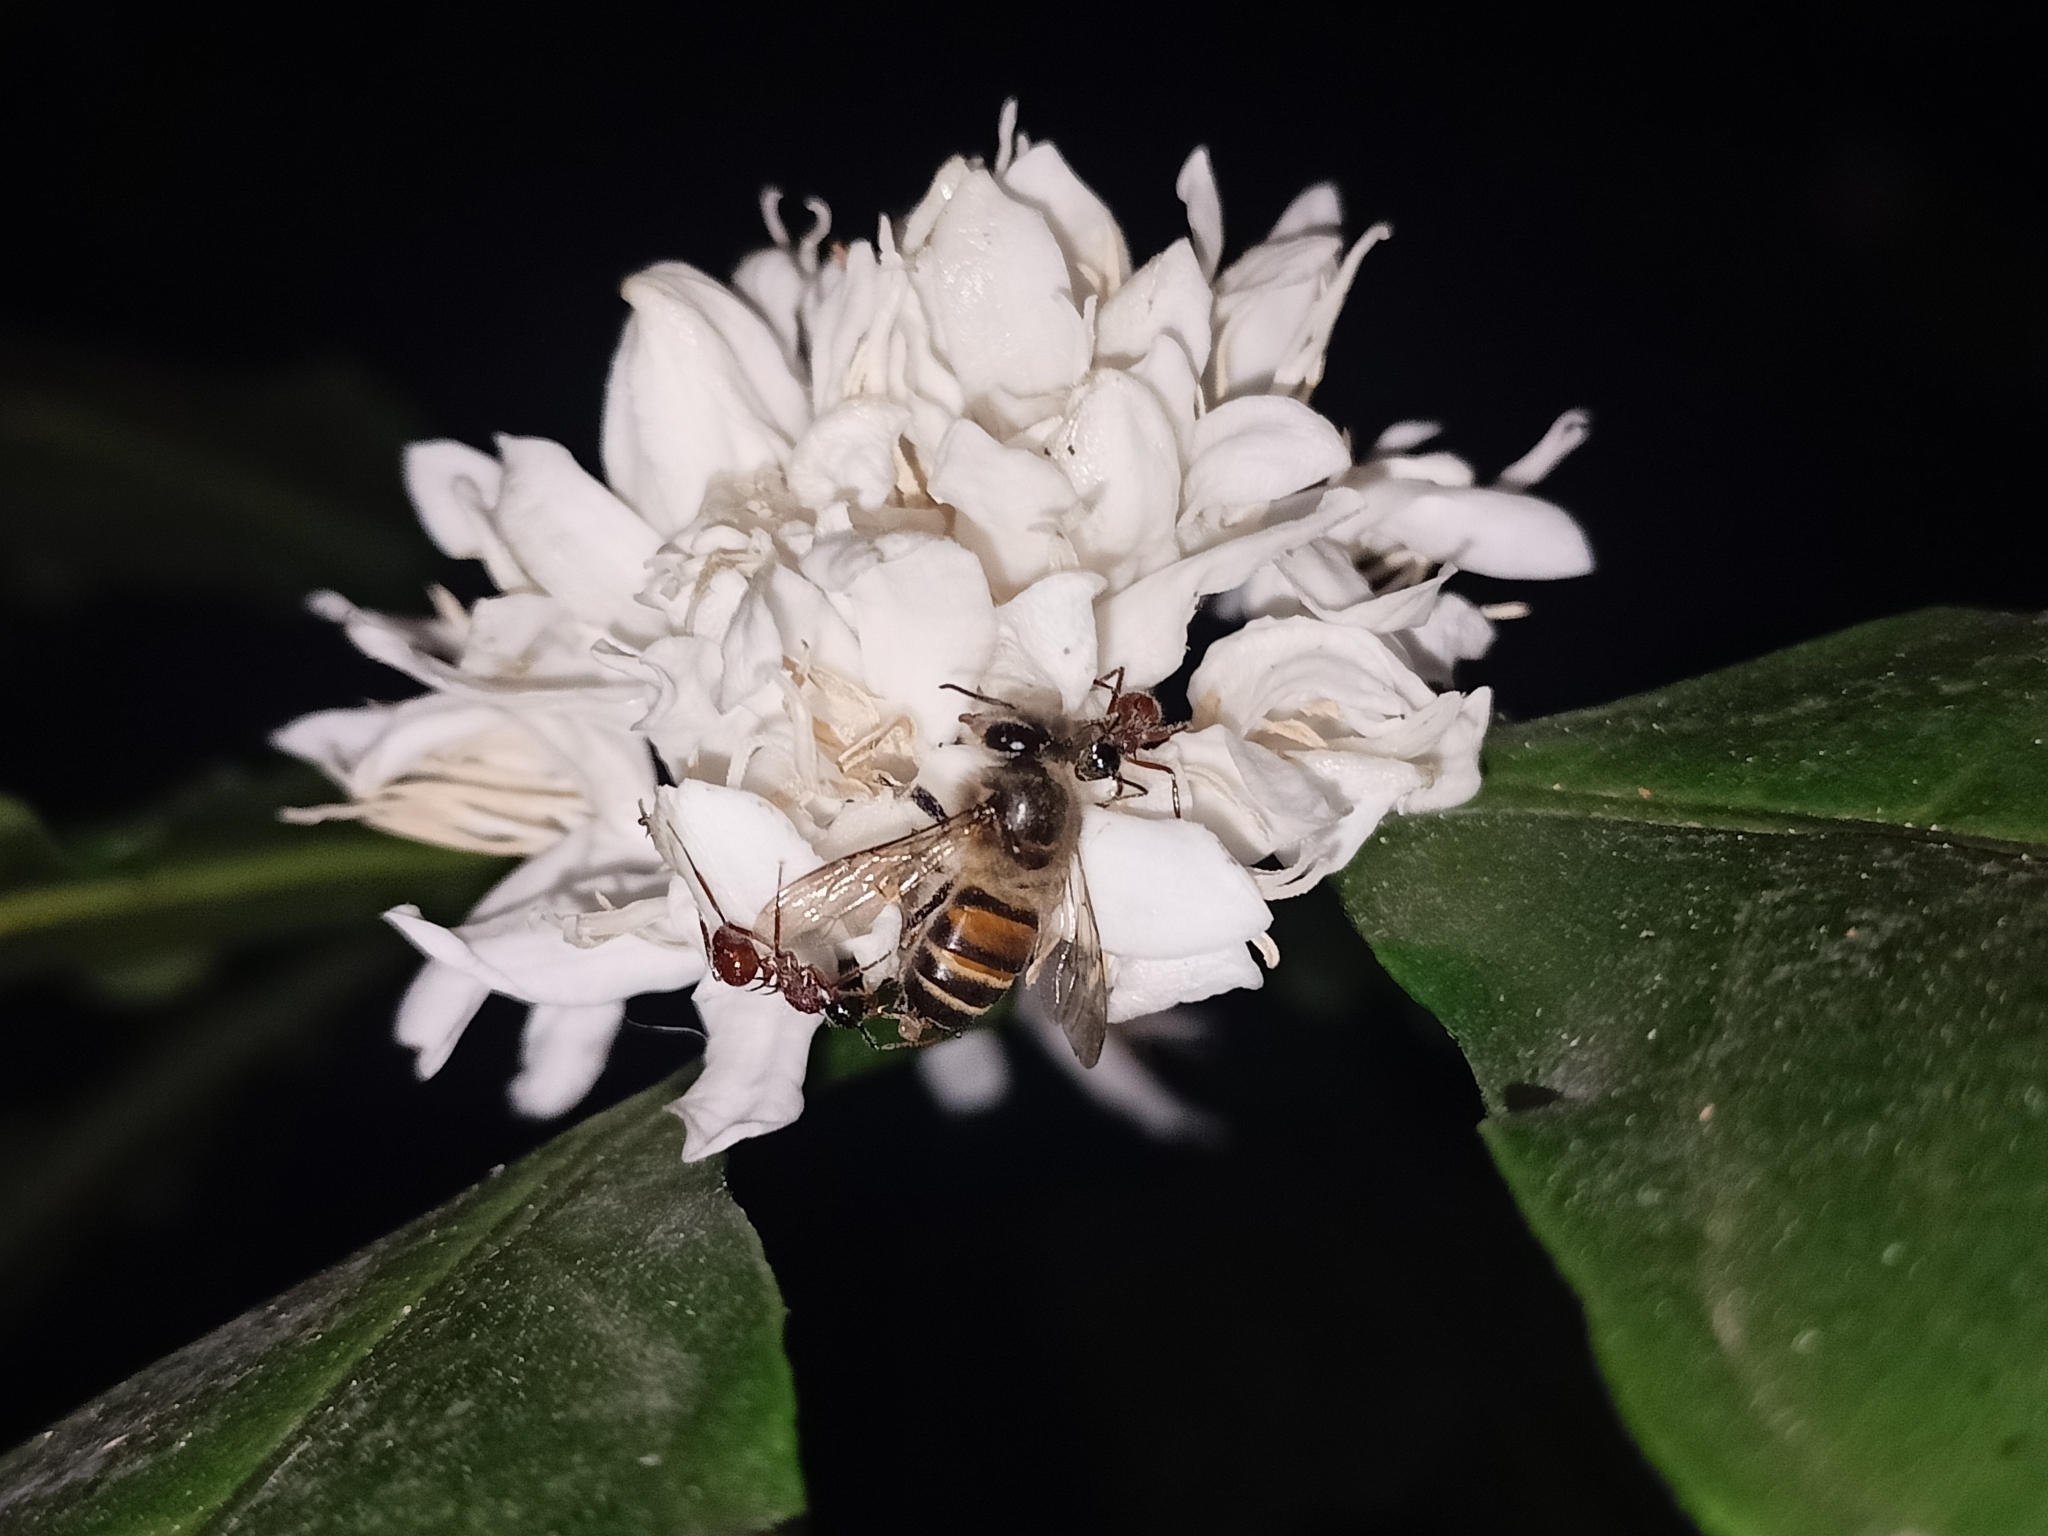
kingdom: Animalia
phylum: Arthropoda
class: Insecta
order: Hymenoptera
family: Formicidae
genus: Polyrhachis
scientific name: Polyrhachis gracilior
